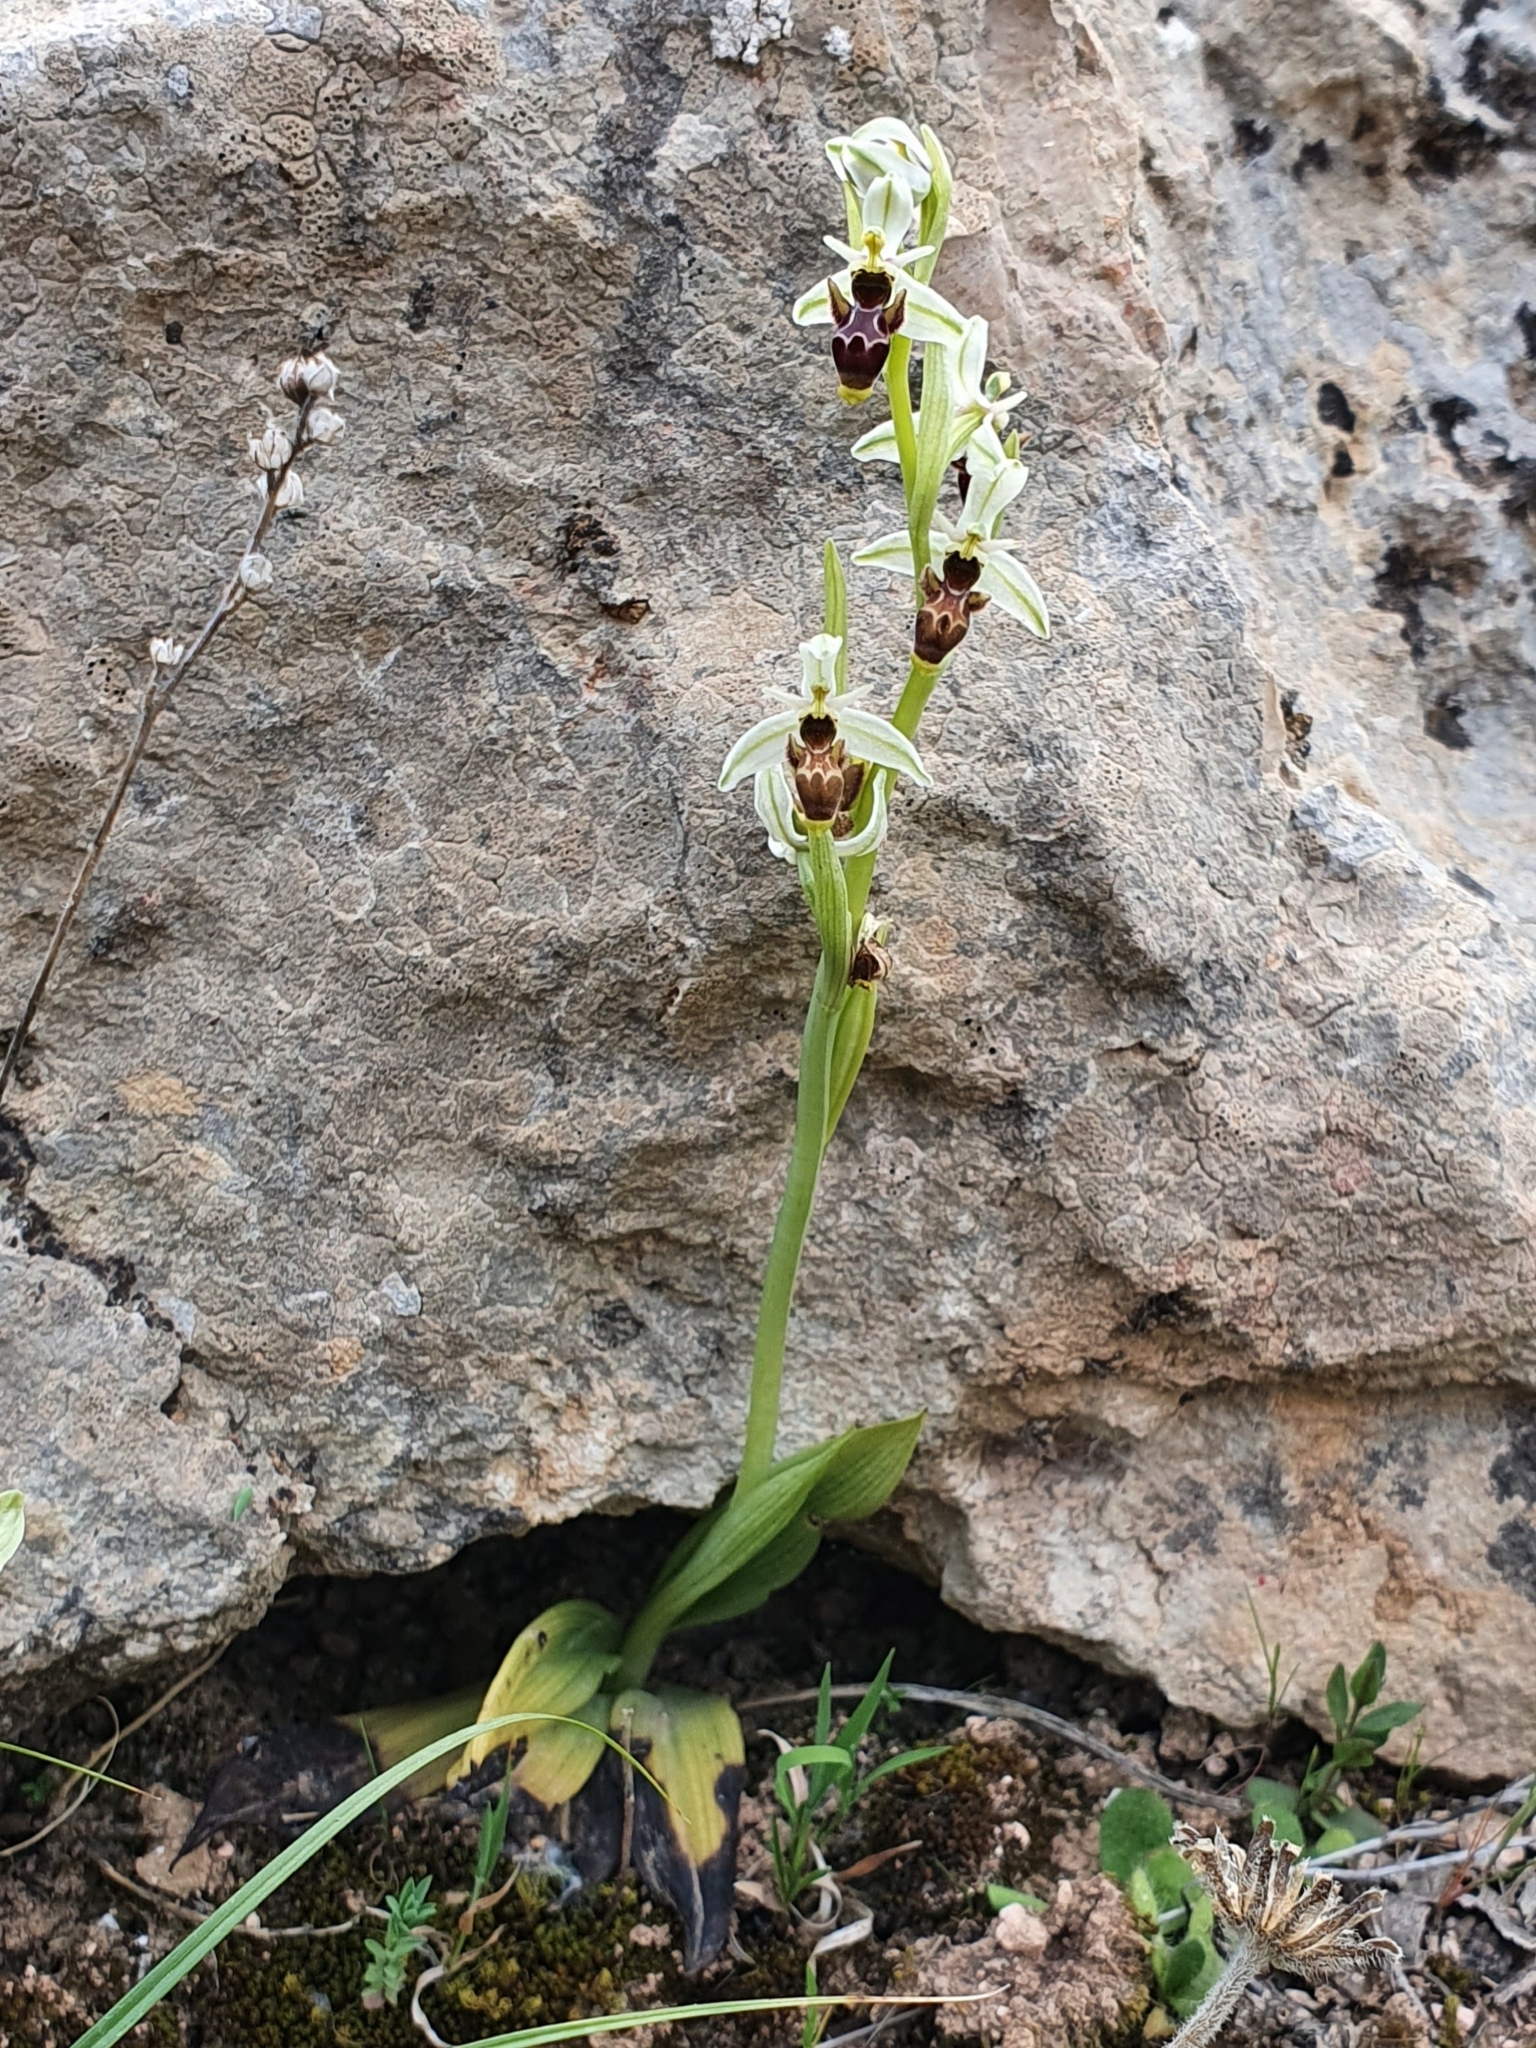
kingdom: Plantae
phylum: Tracheophyta
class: Liliopsida
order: Asparagales
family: Orchidaceae
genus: Ophrys
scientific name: Ophrys scolopax
